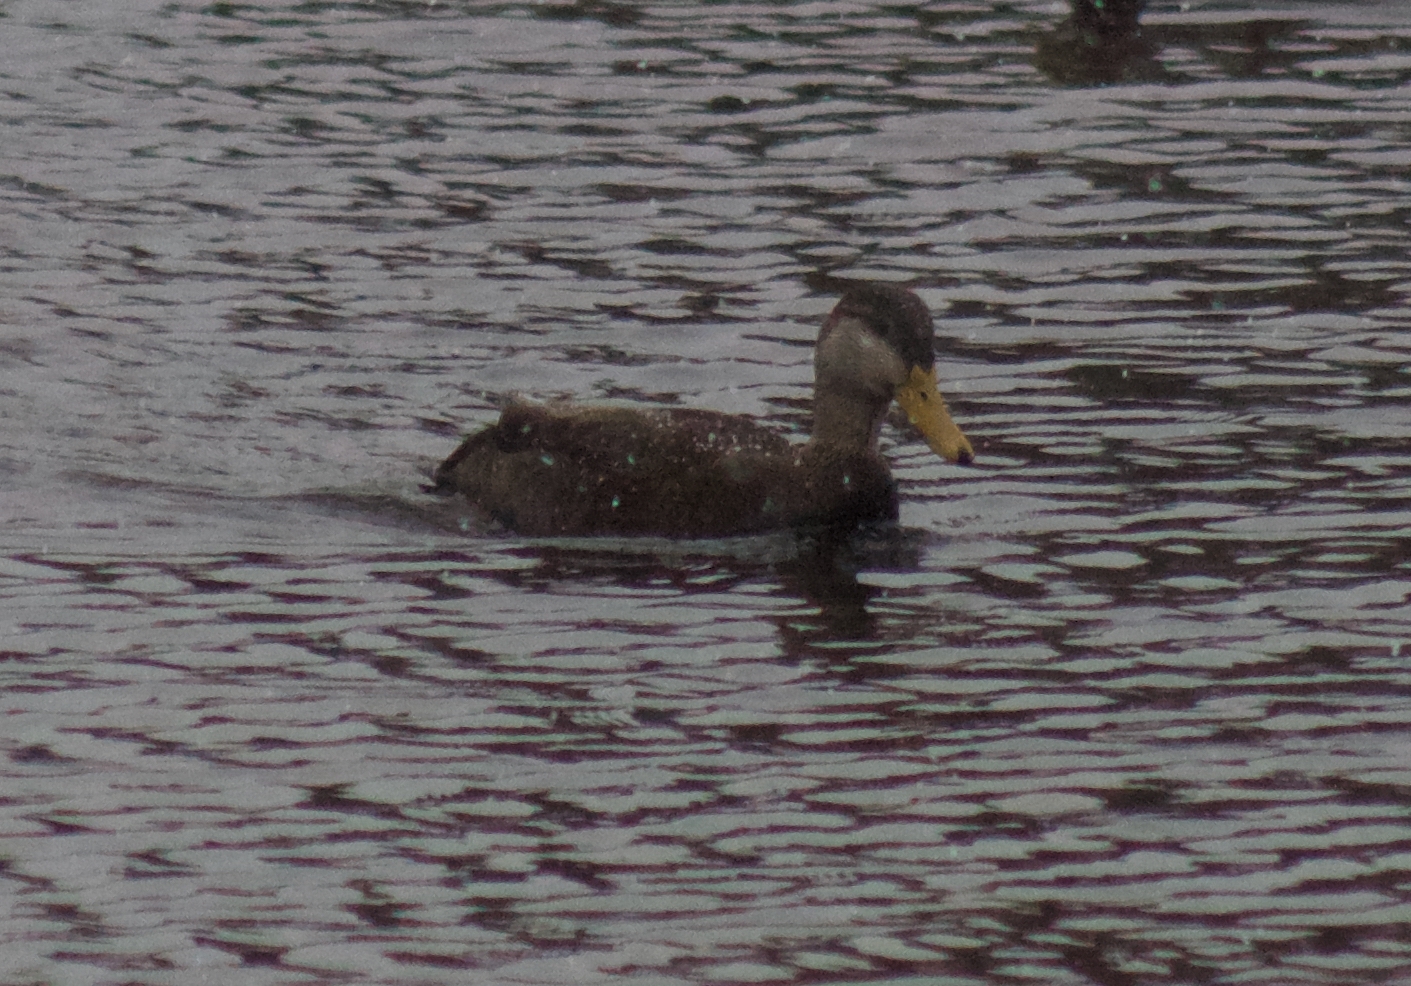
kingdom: Animalia
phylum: Chordata
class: Aves
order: Anseriformes
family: Anatidae
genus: Anas
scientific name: Anas rubripes
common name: American black duck
